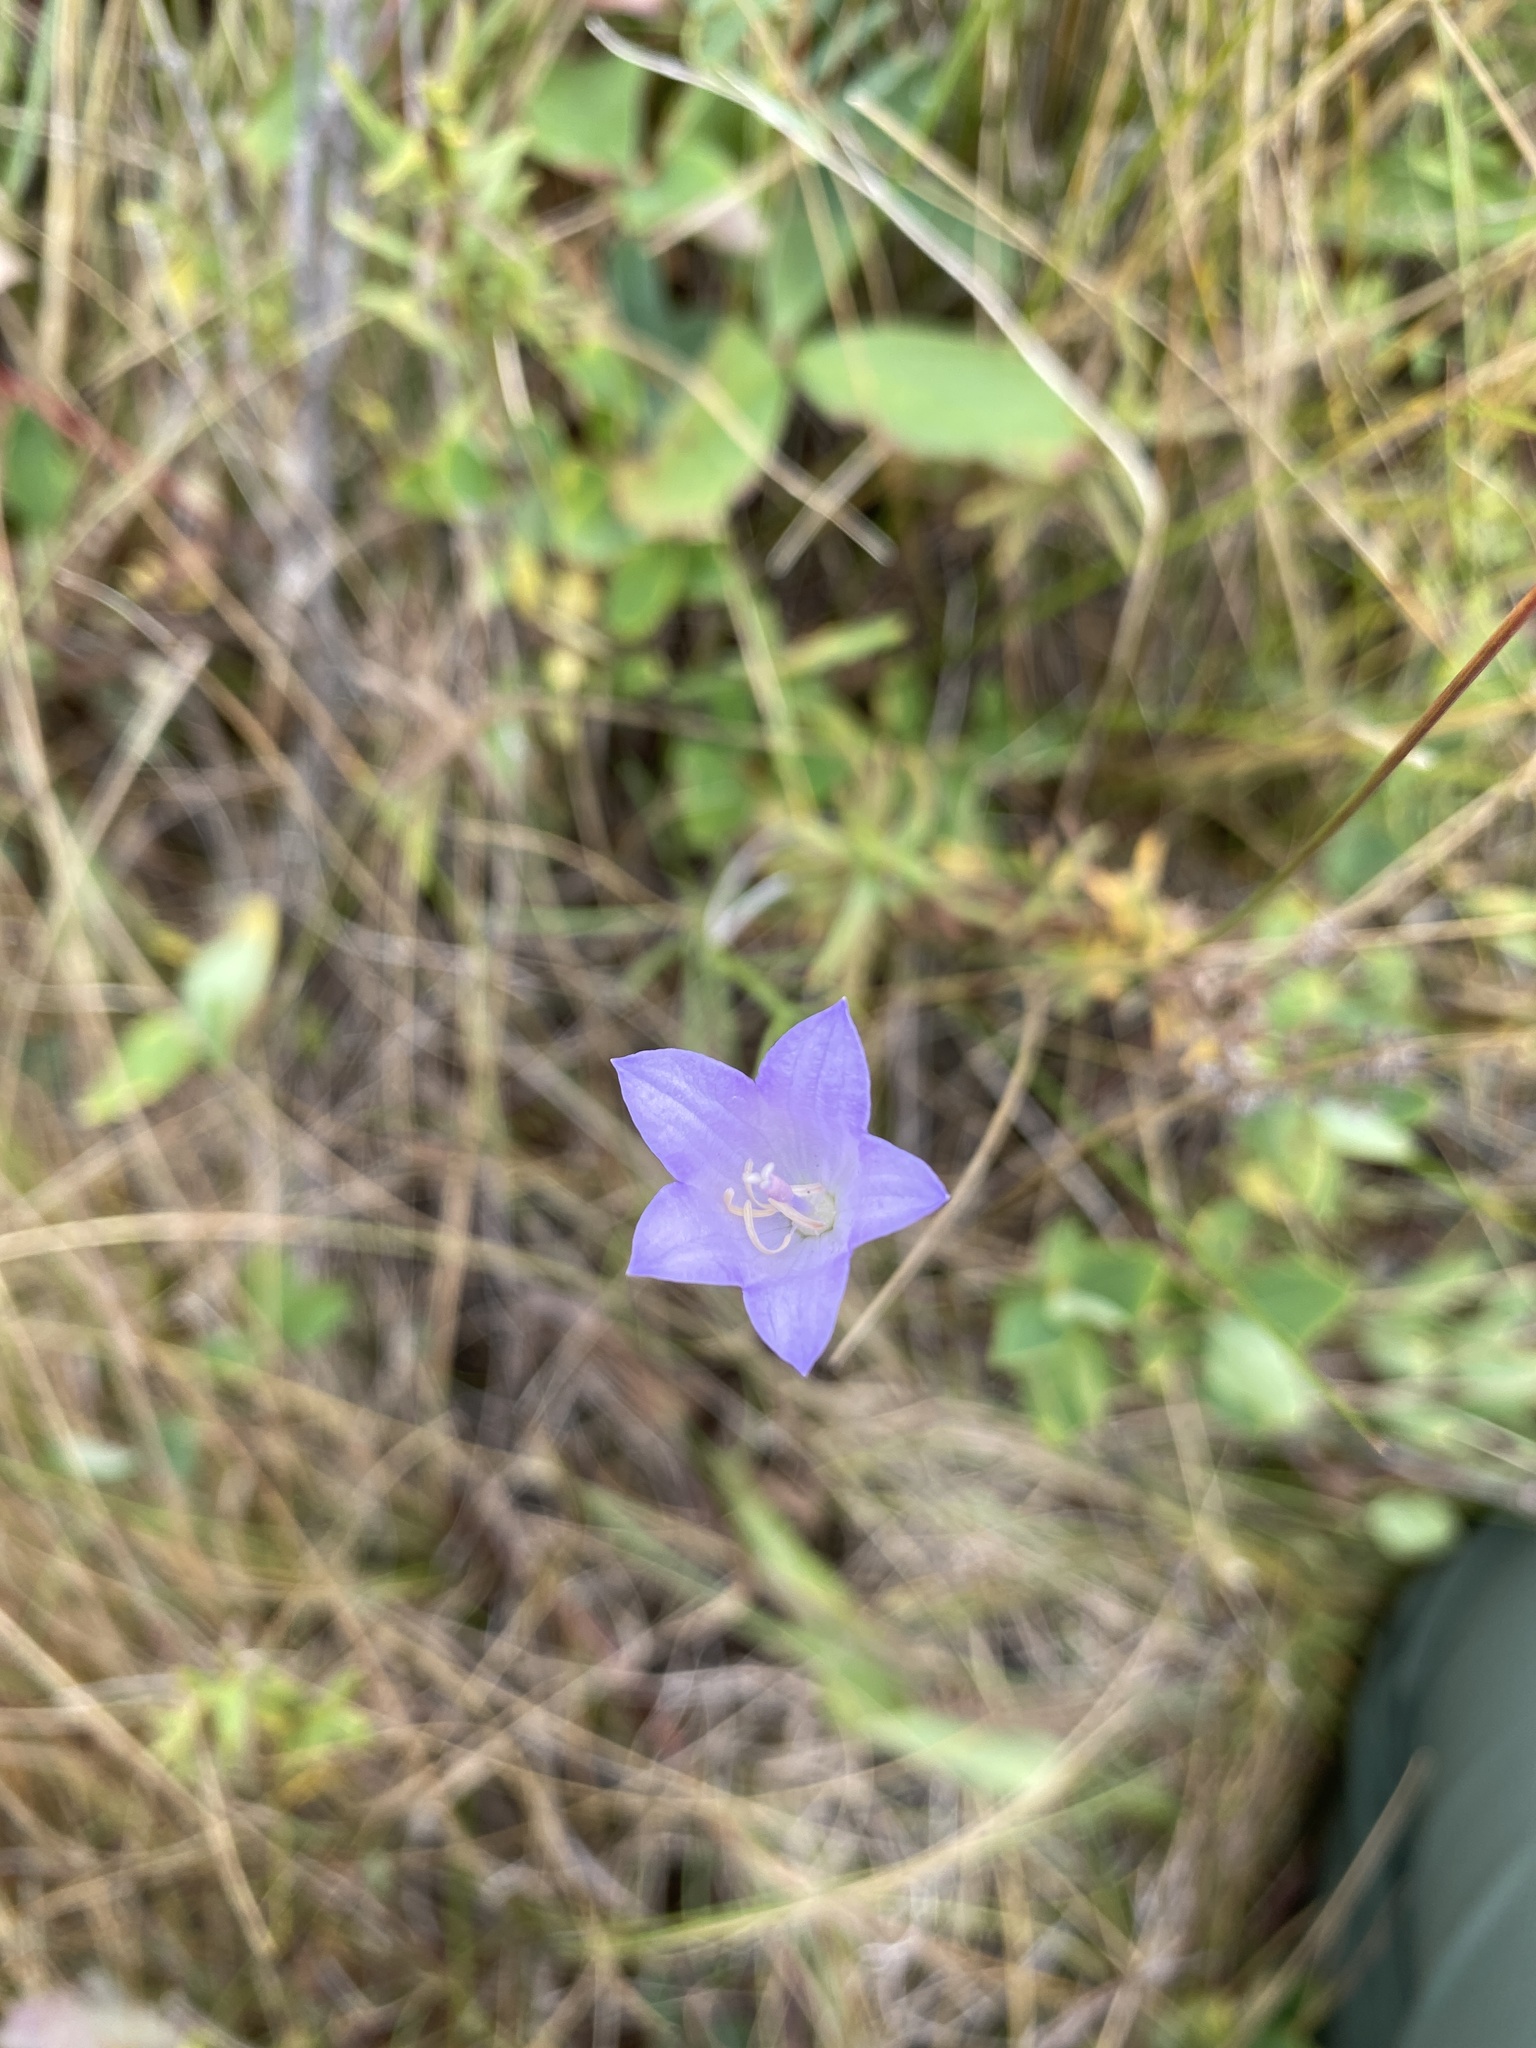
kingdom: Plantae
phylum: Tracheophyta
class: Magnoliopsida
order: Asterales
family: Campanulaceae
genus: Campanula
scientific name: Campanula alaskana
